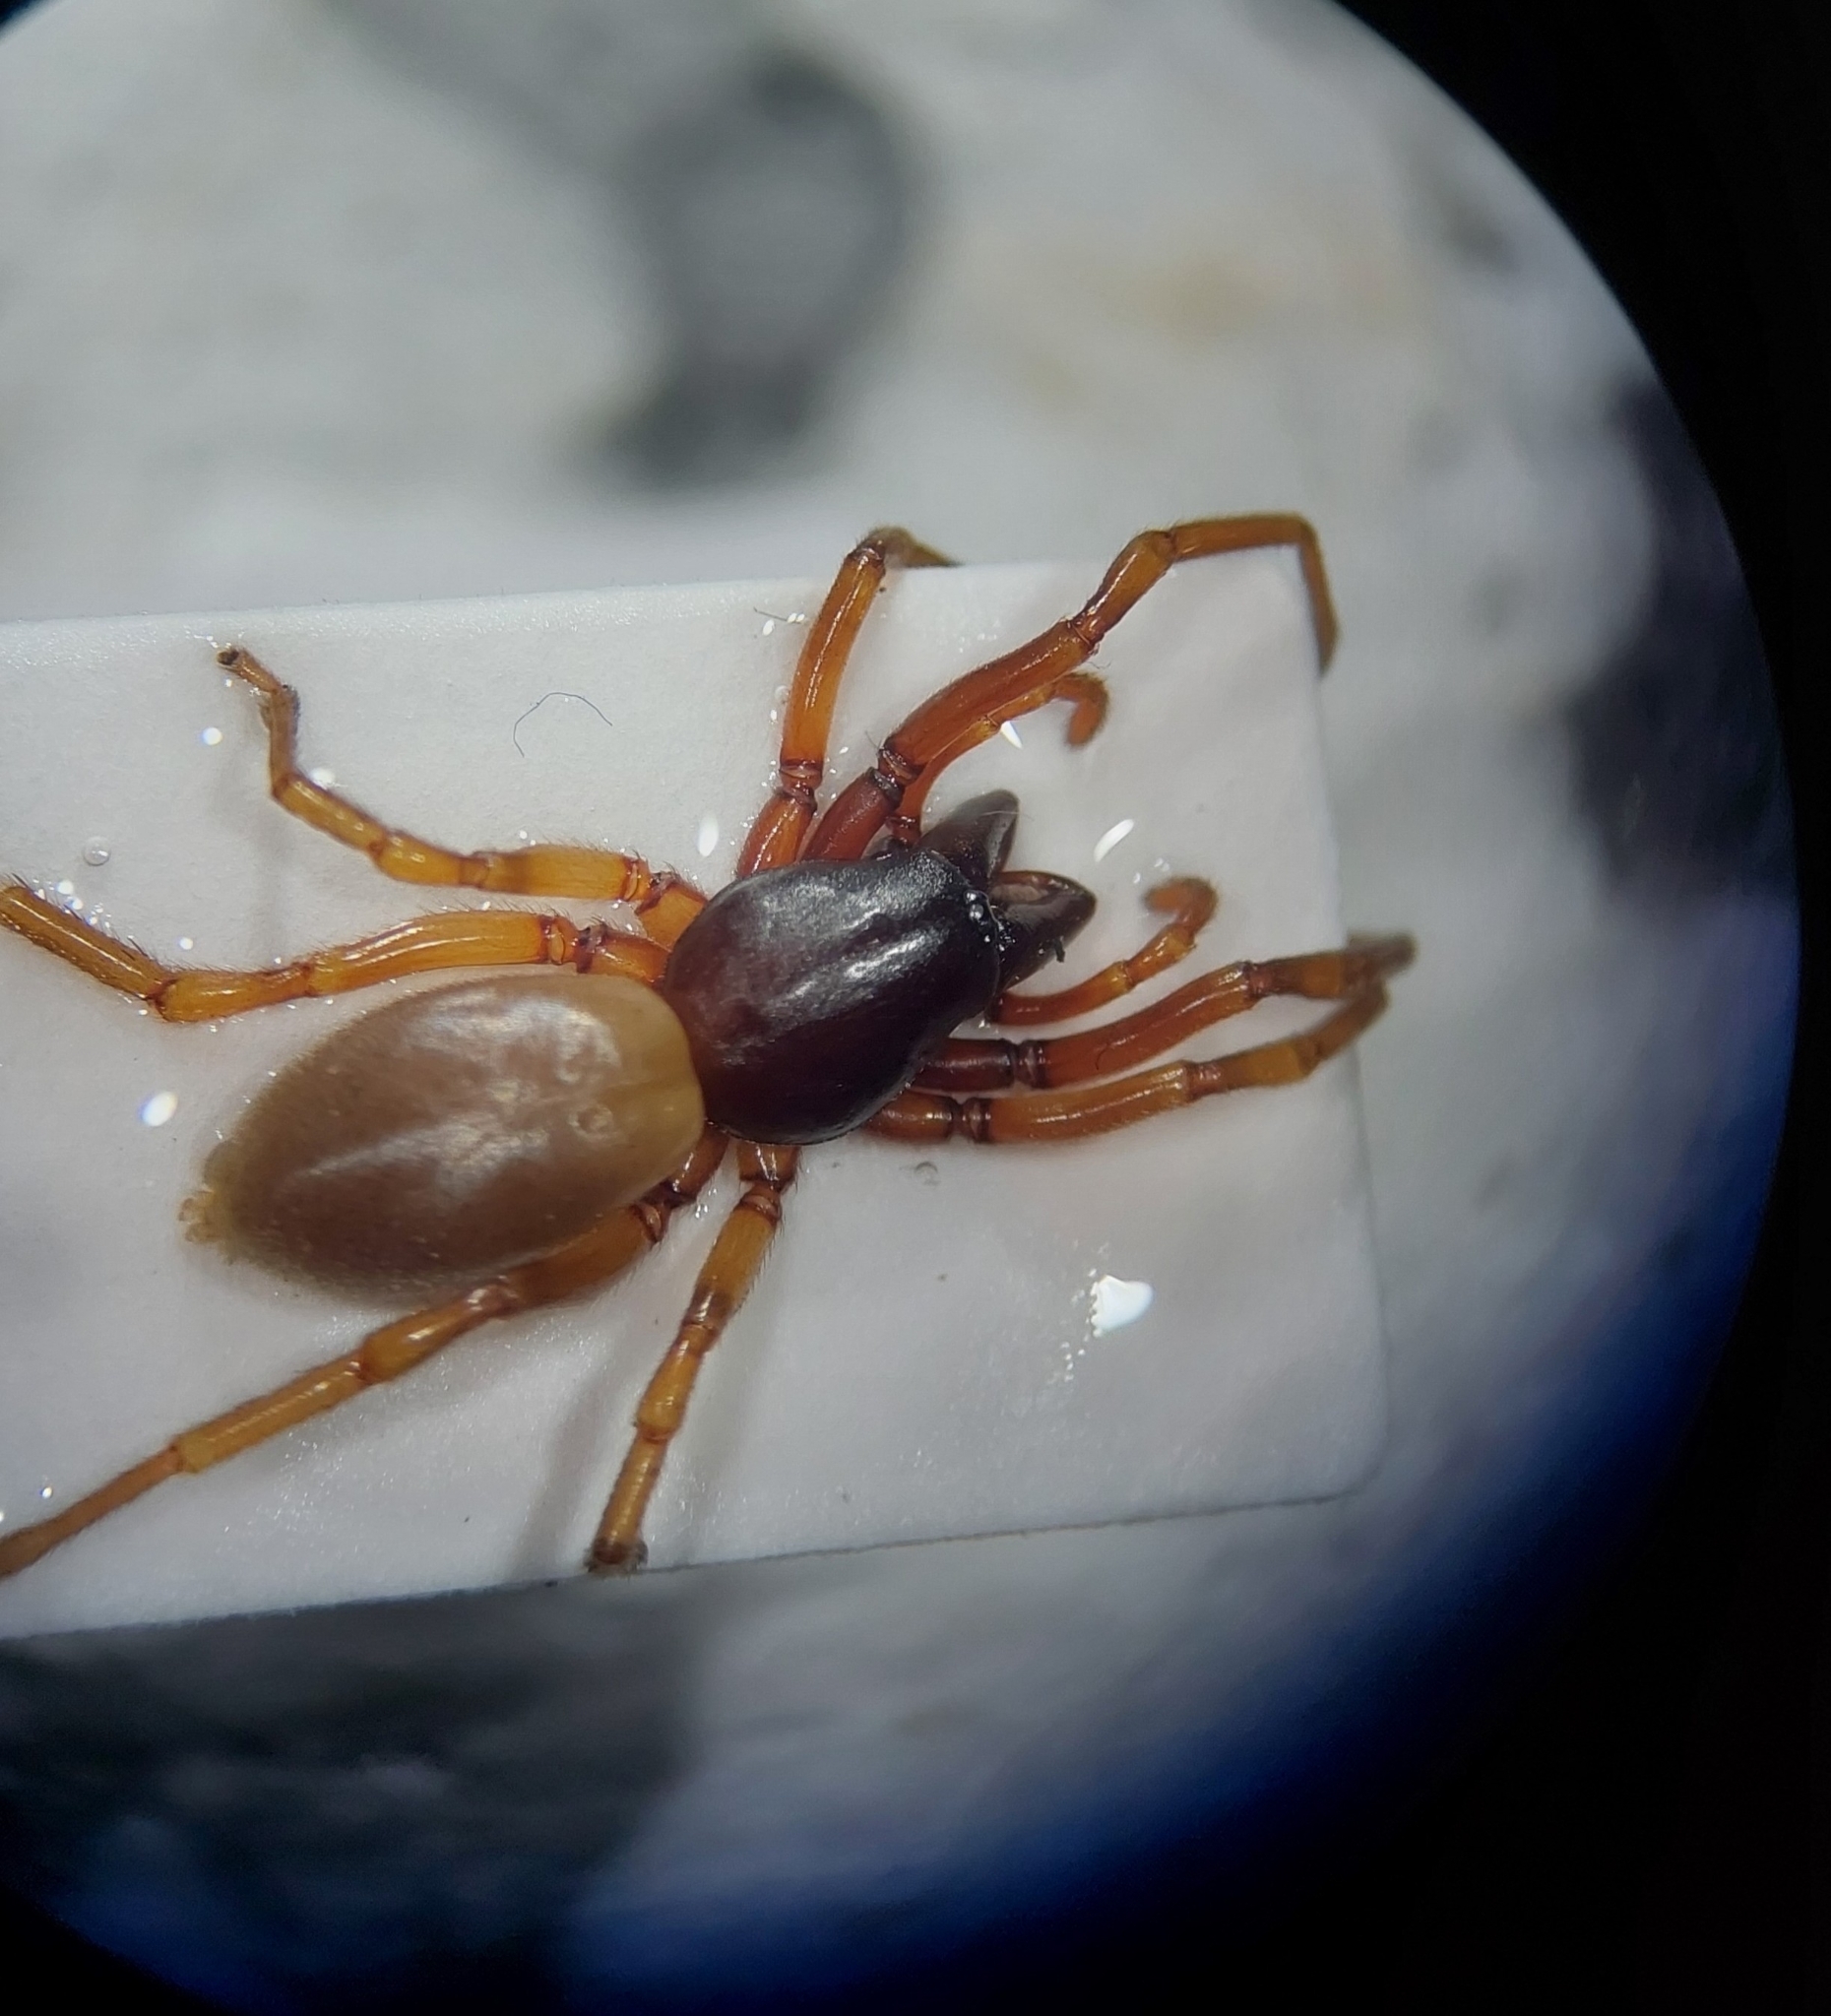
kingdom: Animalia
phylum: Arthropoda
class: Arachnida
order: Araneae
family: Dysderidae
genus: Dysdera
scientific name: Dysdera erythrina
